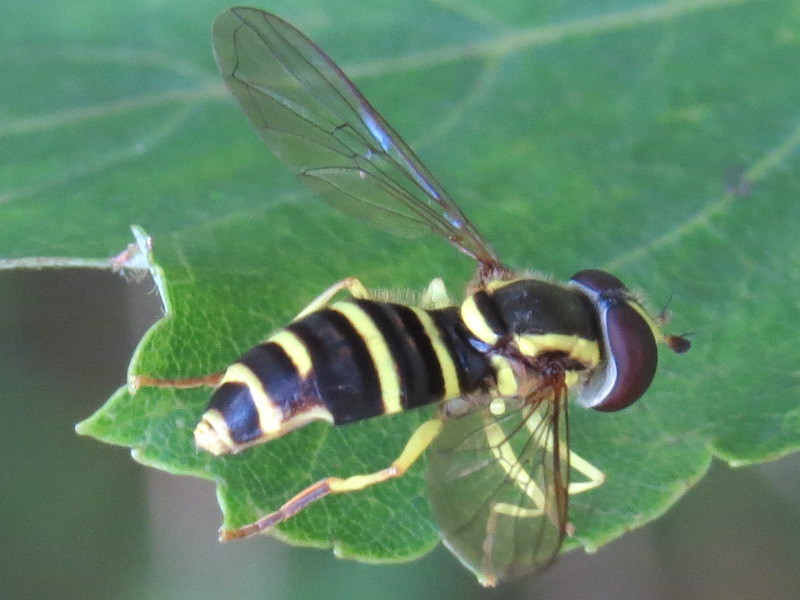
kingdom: Animalia
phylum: Arthropoda
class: Insecta
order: Diptera
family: Syrphidae
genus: Philhelius
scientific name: Philhelius flavipes
